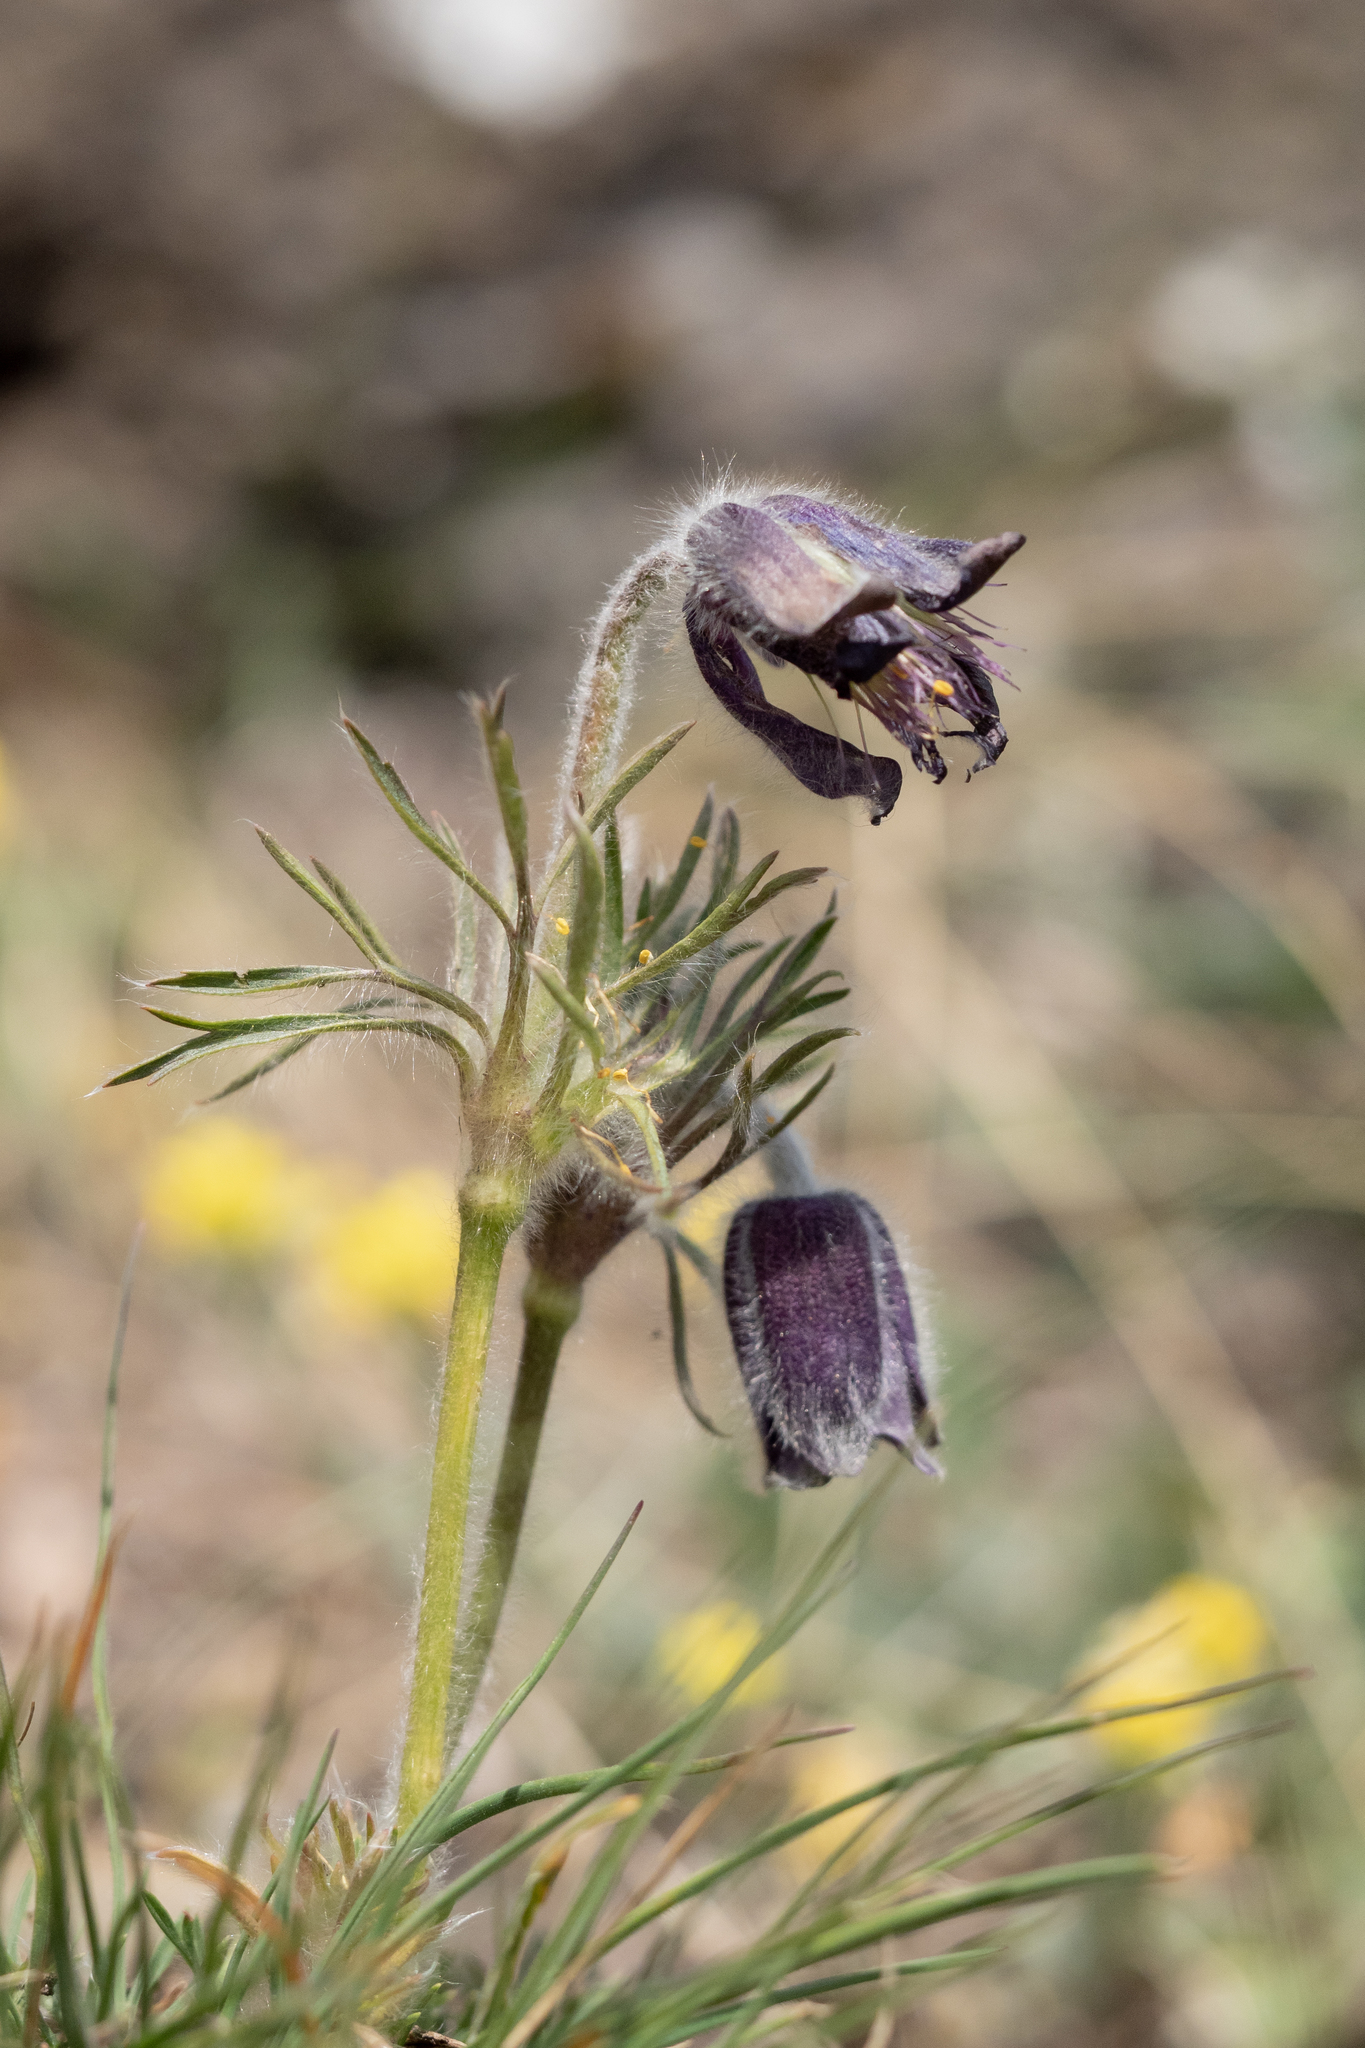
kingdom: Plantae
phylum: Tracheophyta
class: Magnoliopsida
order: Ranunculales
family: Ranunculaceae
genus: Pulsatilla
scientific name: Pulsatilla pratensis
